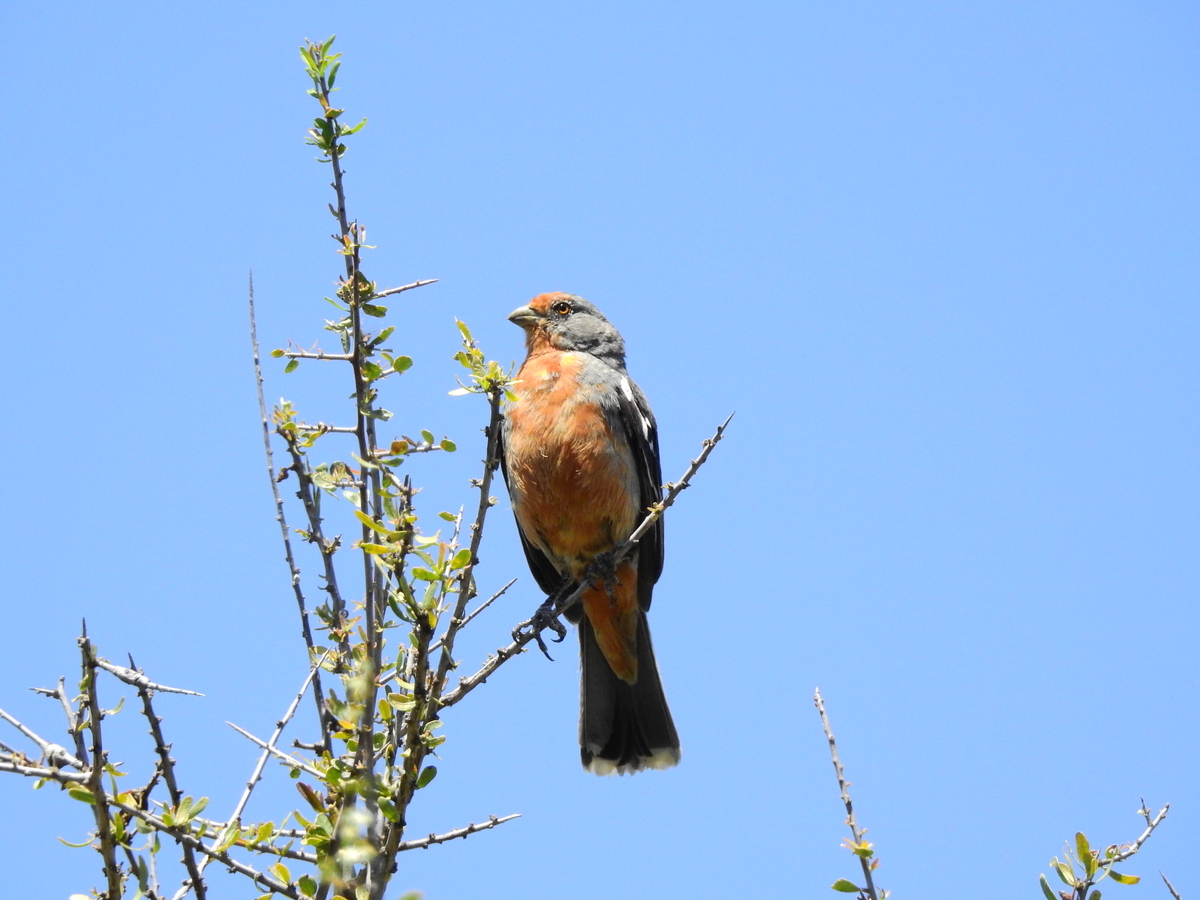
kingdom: Animalia
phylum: Chordata
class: Aves
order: Passeriformes
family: Cotingidae
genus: Phytotoma
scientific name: Phytotoma rutila
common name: White-tipped plantcutter
